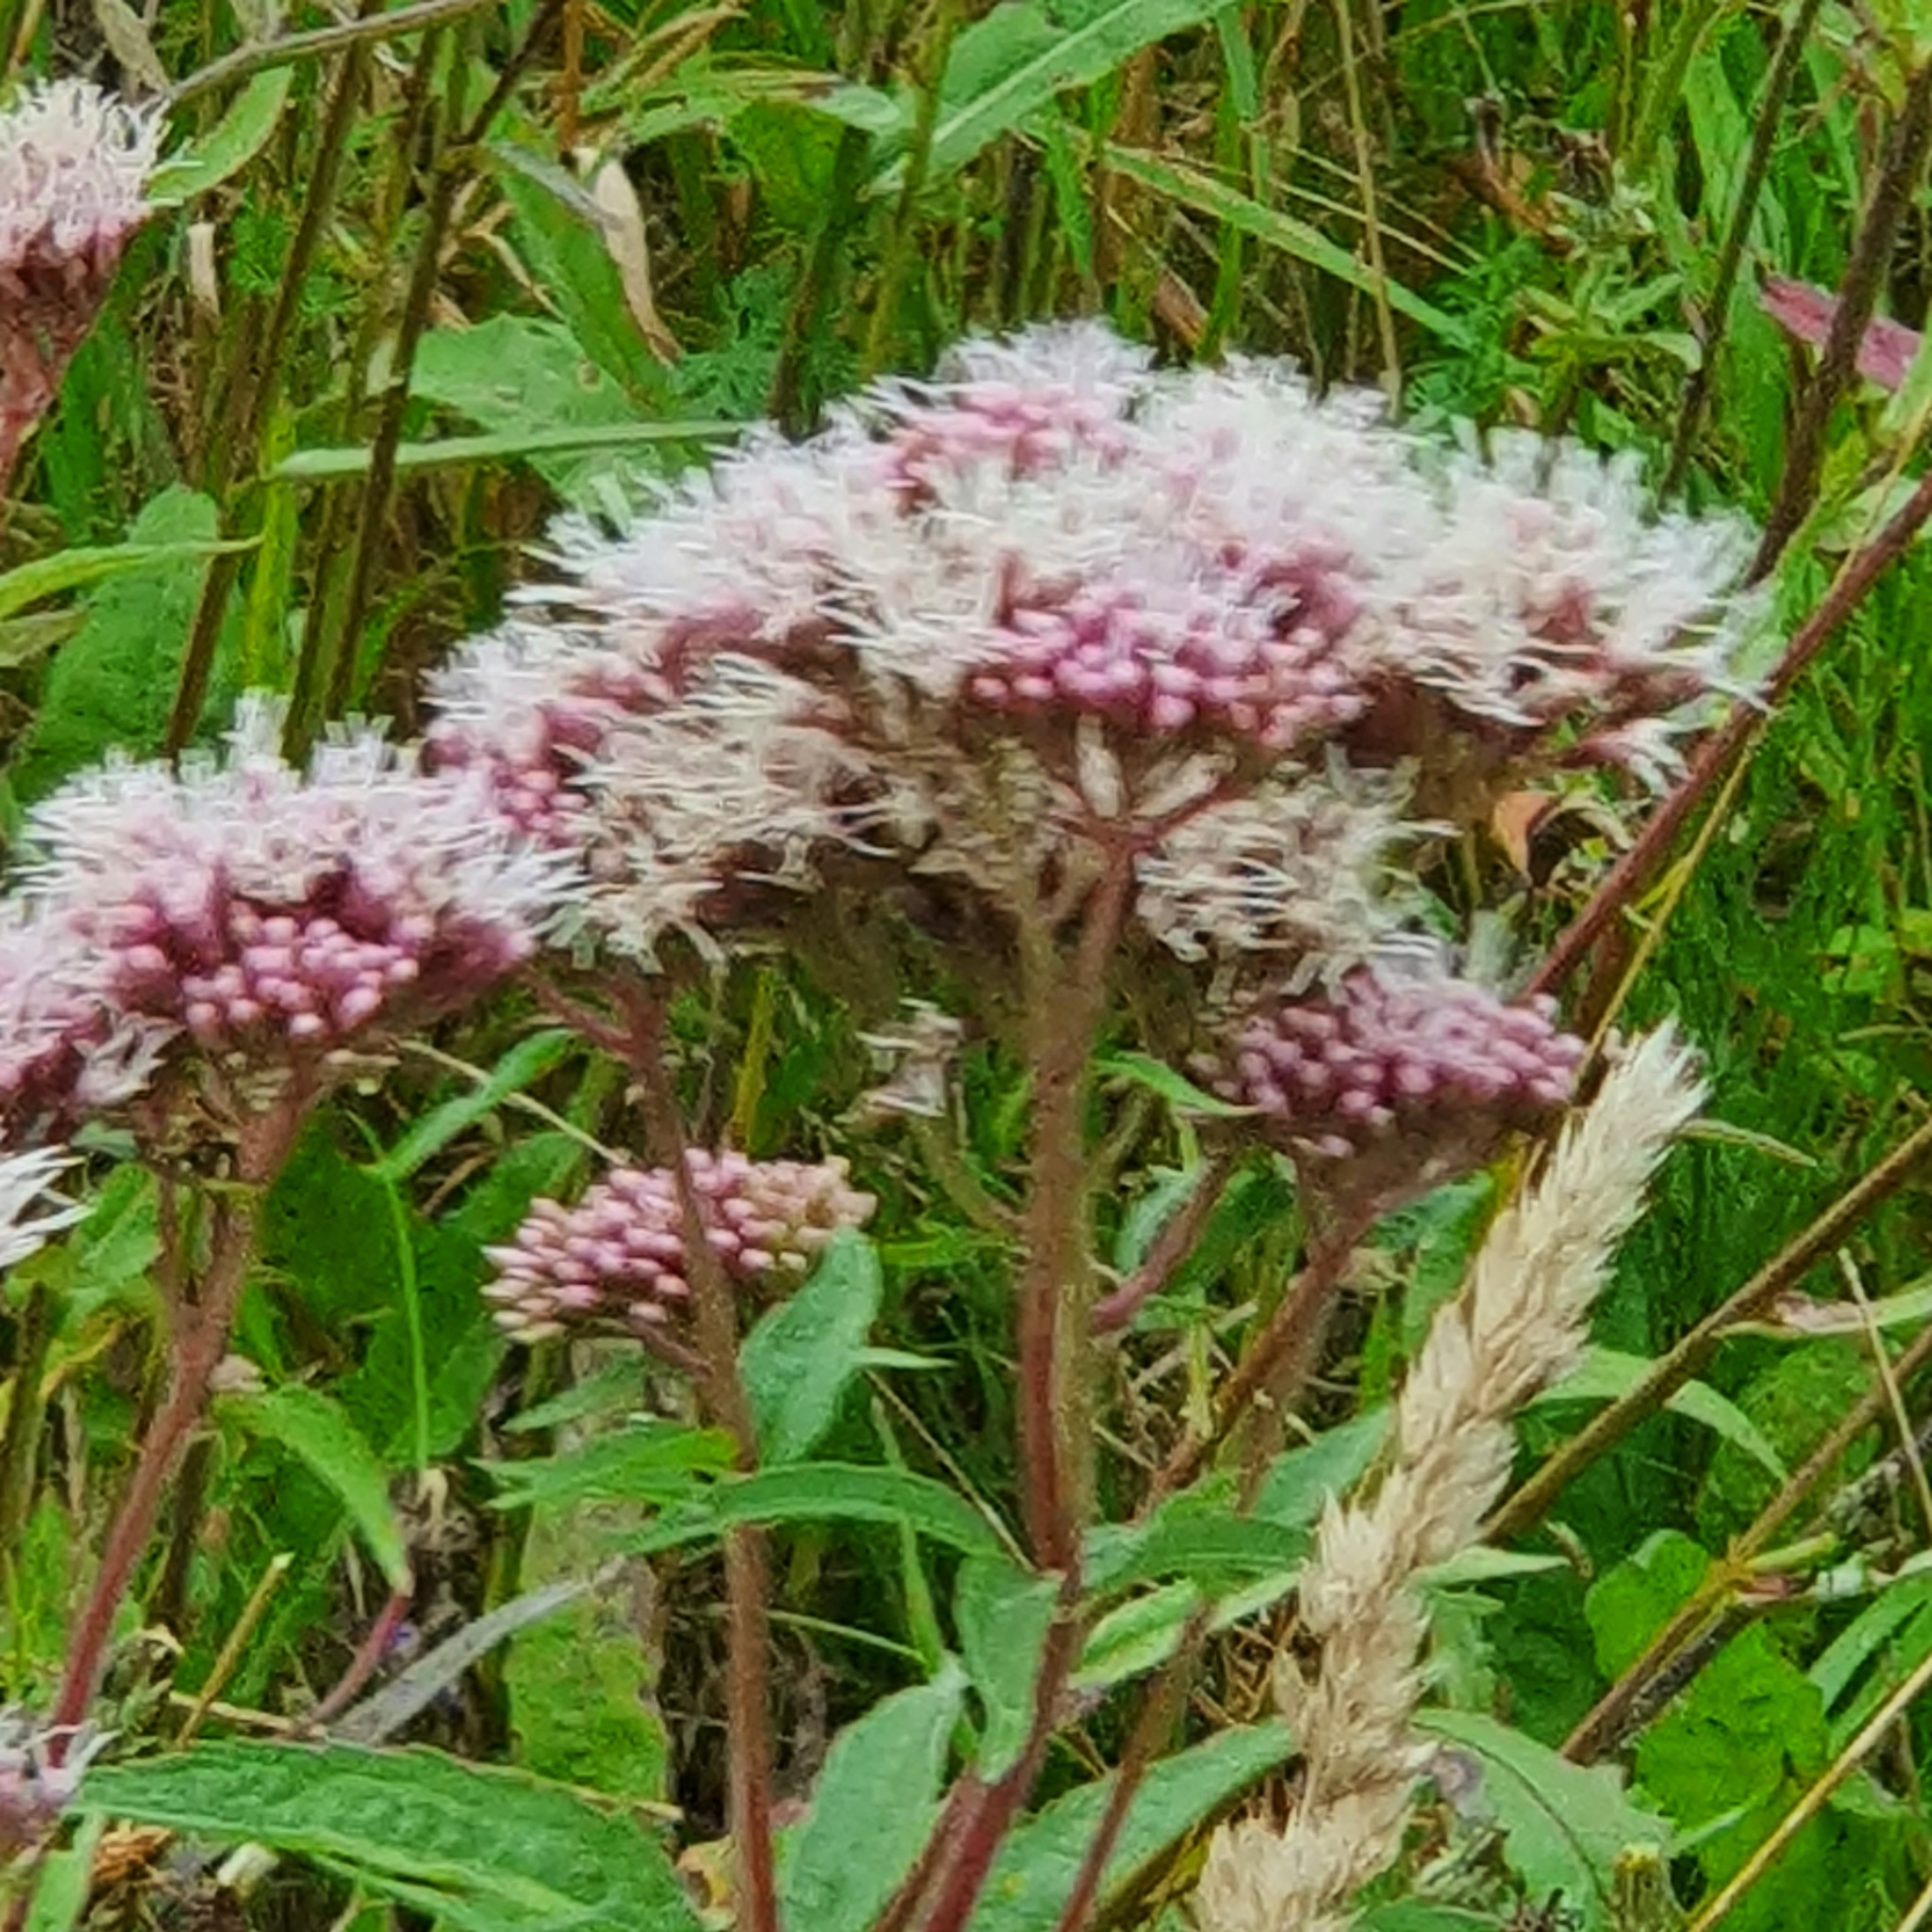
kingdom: Plantae
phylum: Tracheophyta
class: Magnoliopsida
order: Asterales
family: Asteraceae
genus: Eupatorium
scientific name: Eupatorium cannabinum
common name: Hemp-agrimony
